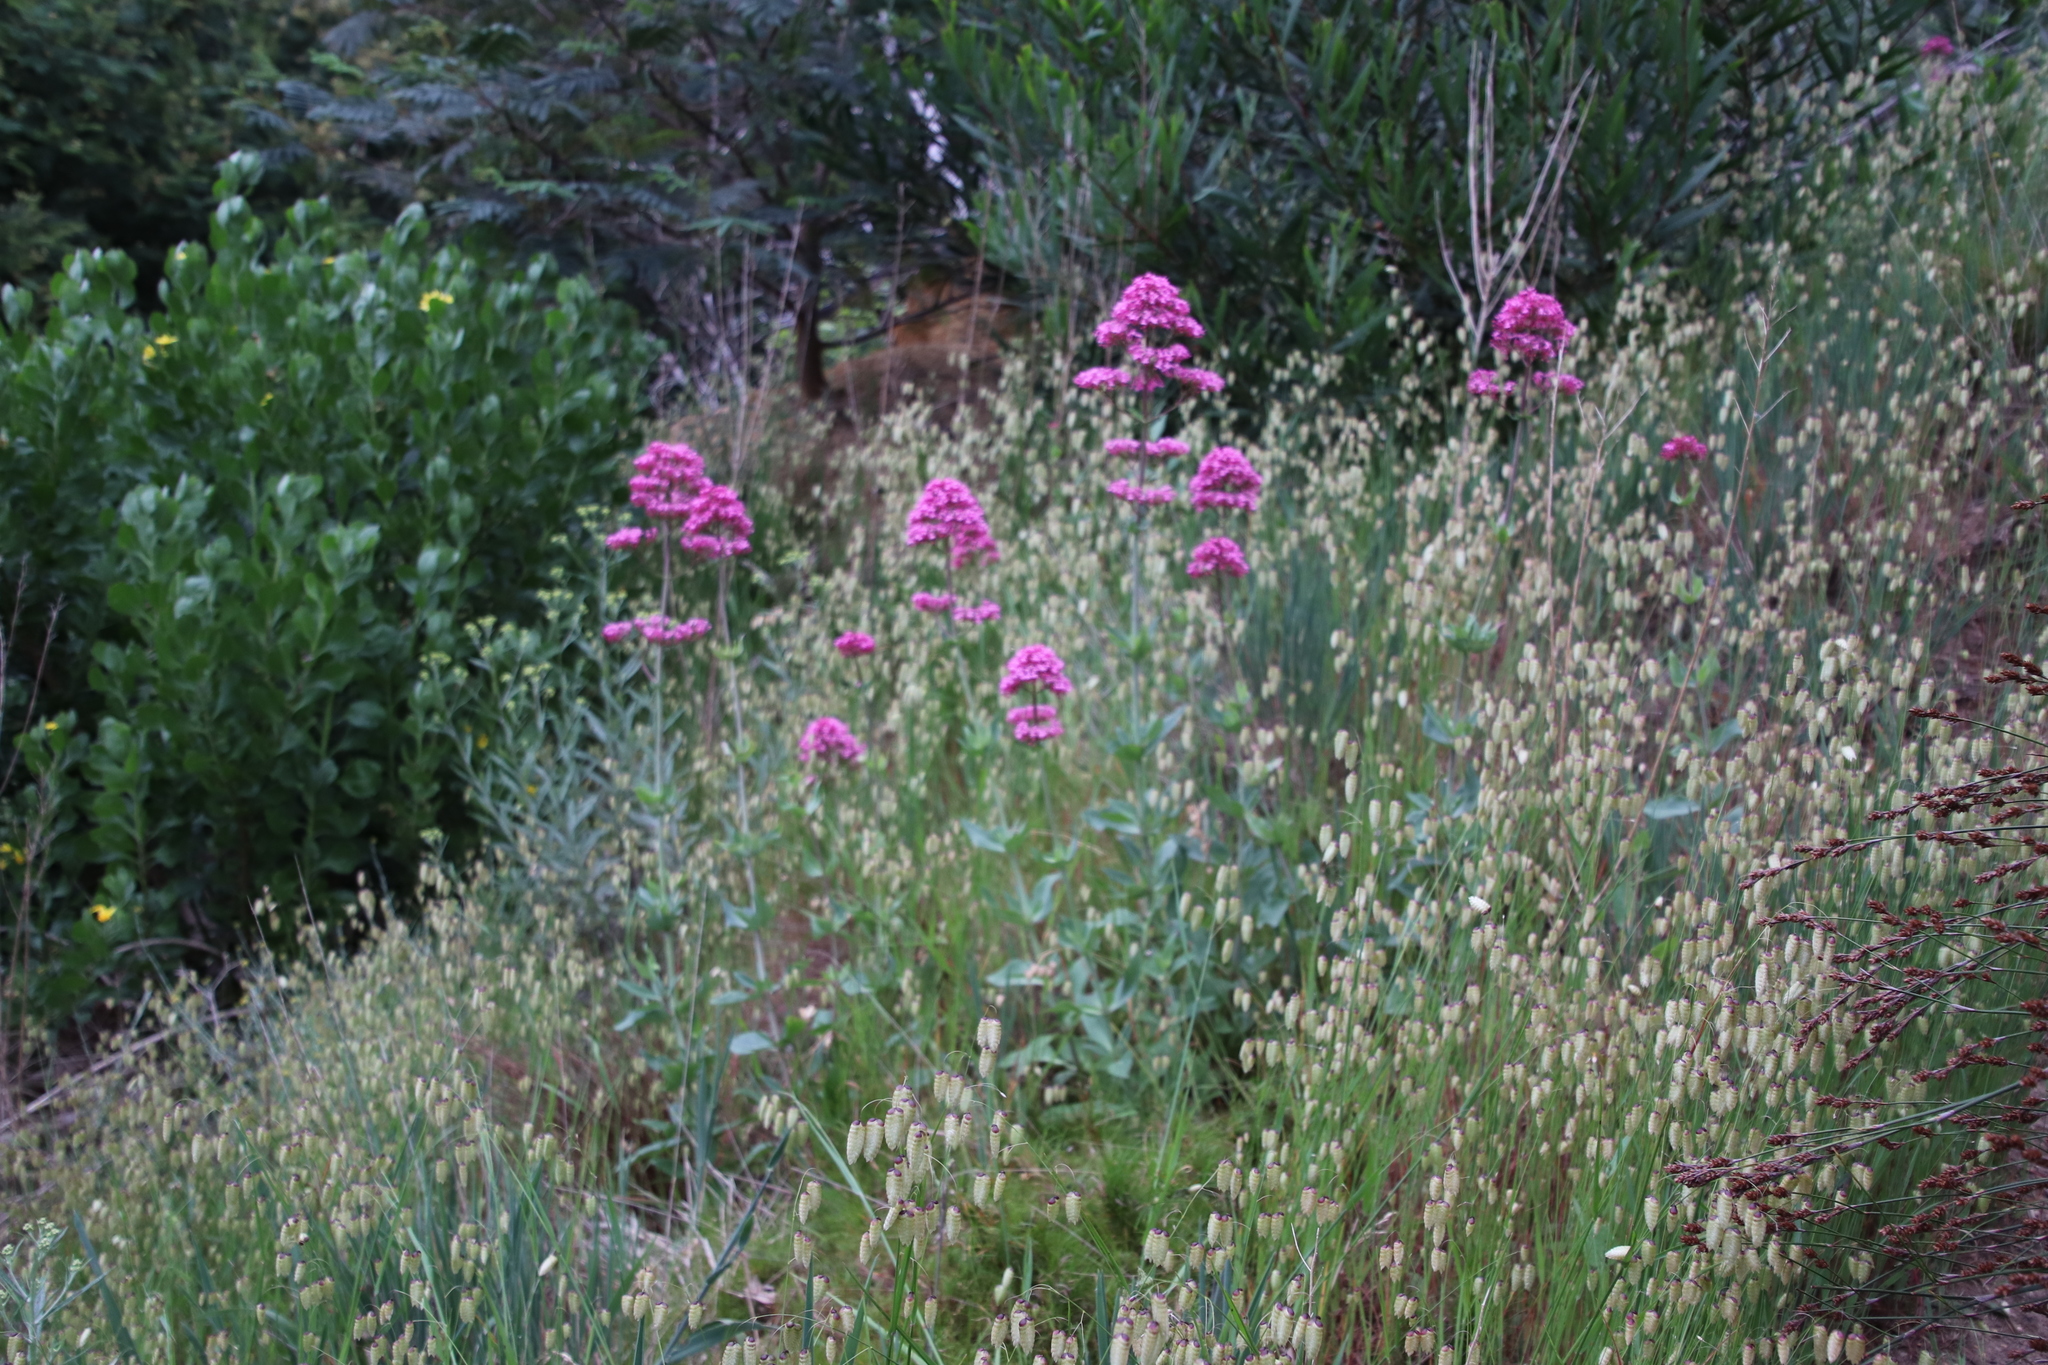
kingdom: Plantae
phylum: Tracheophyta
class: Magnoliopsida
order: Dipsacales
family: Caprifoliaceae
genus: Centranthus
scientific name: Centranthus ruber
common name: Red valerian
